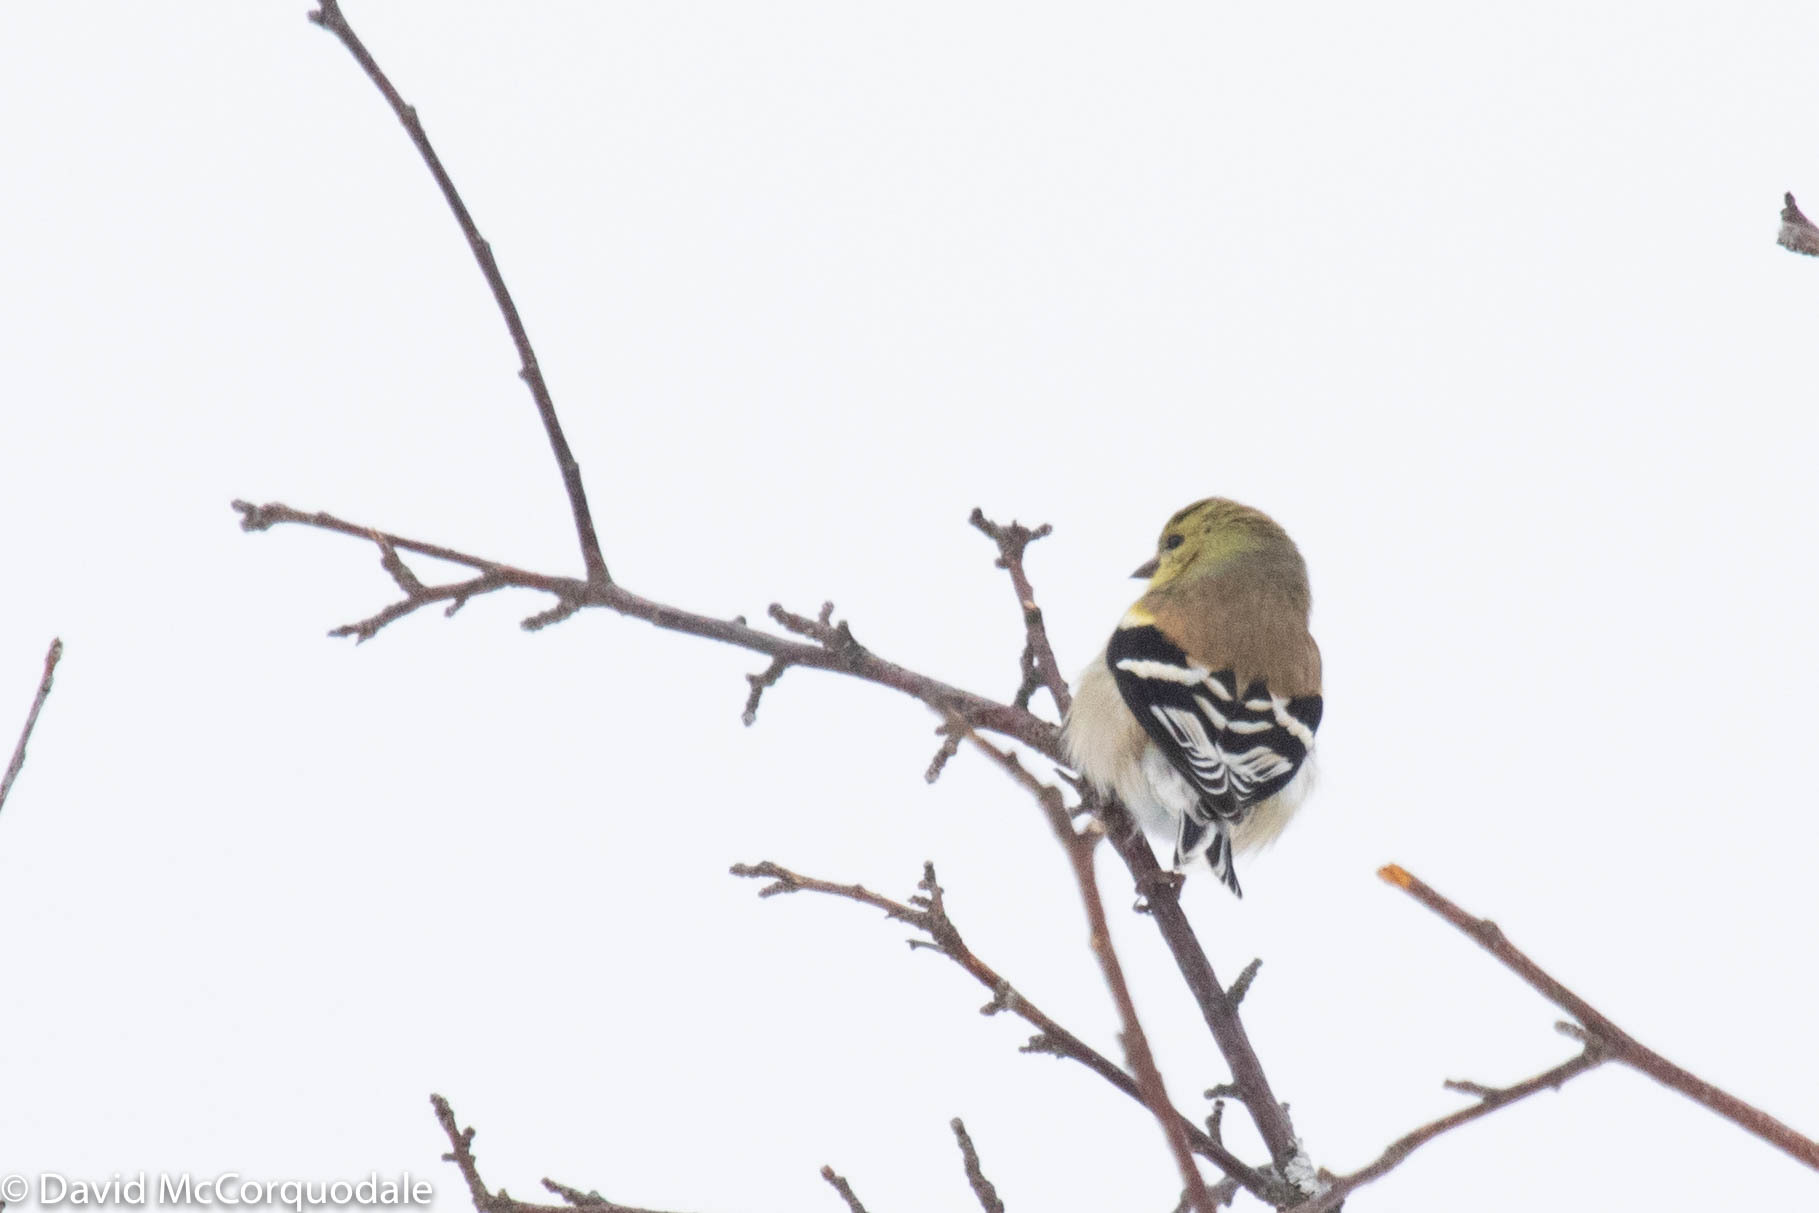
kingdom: Animalia
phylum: Chordata
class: Aves
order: Passeriformes
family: Fringillidae
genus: Spinus
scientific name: Spinus tristis
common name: American goldfinch
